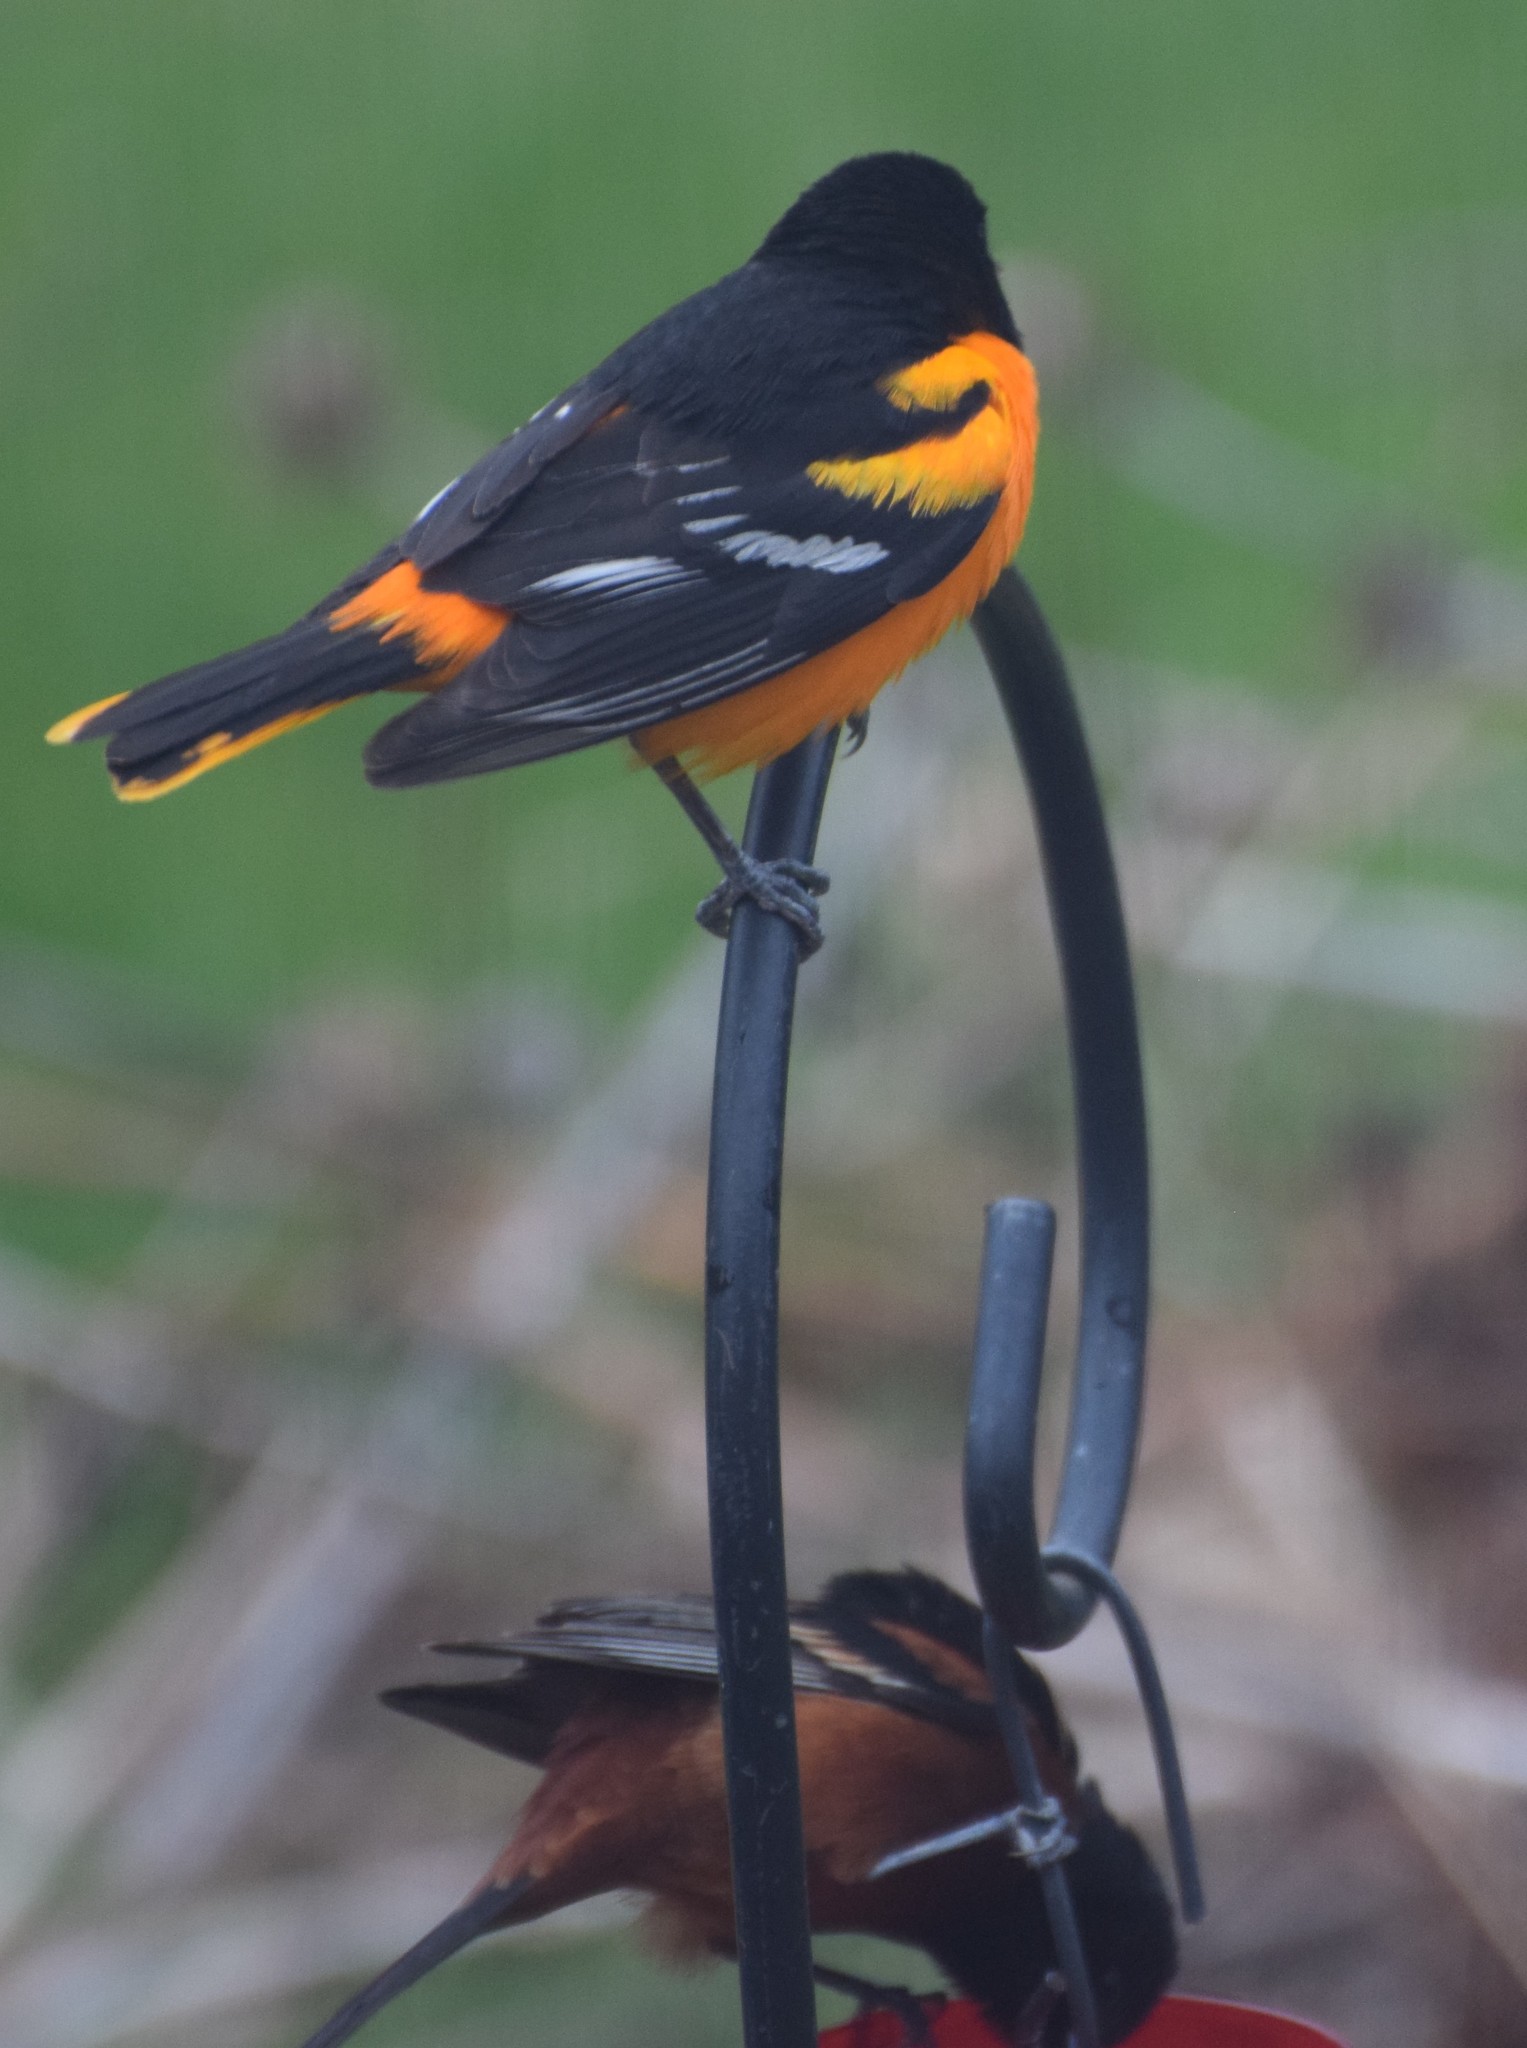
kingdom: Animalia
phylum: Chordata
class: Aves
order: Passeriformes
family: Icteridae
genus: Icterus
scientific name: Icterus galbula
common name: Baltimore oriole
